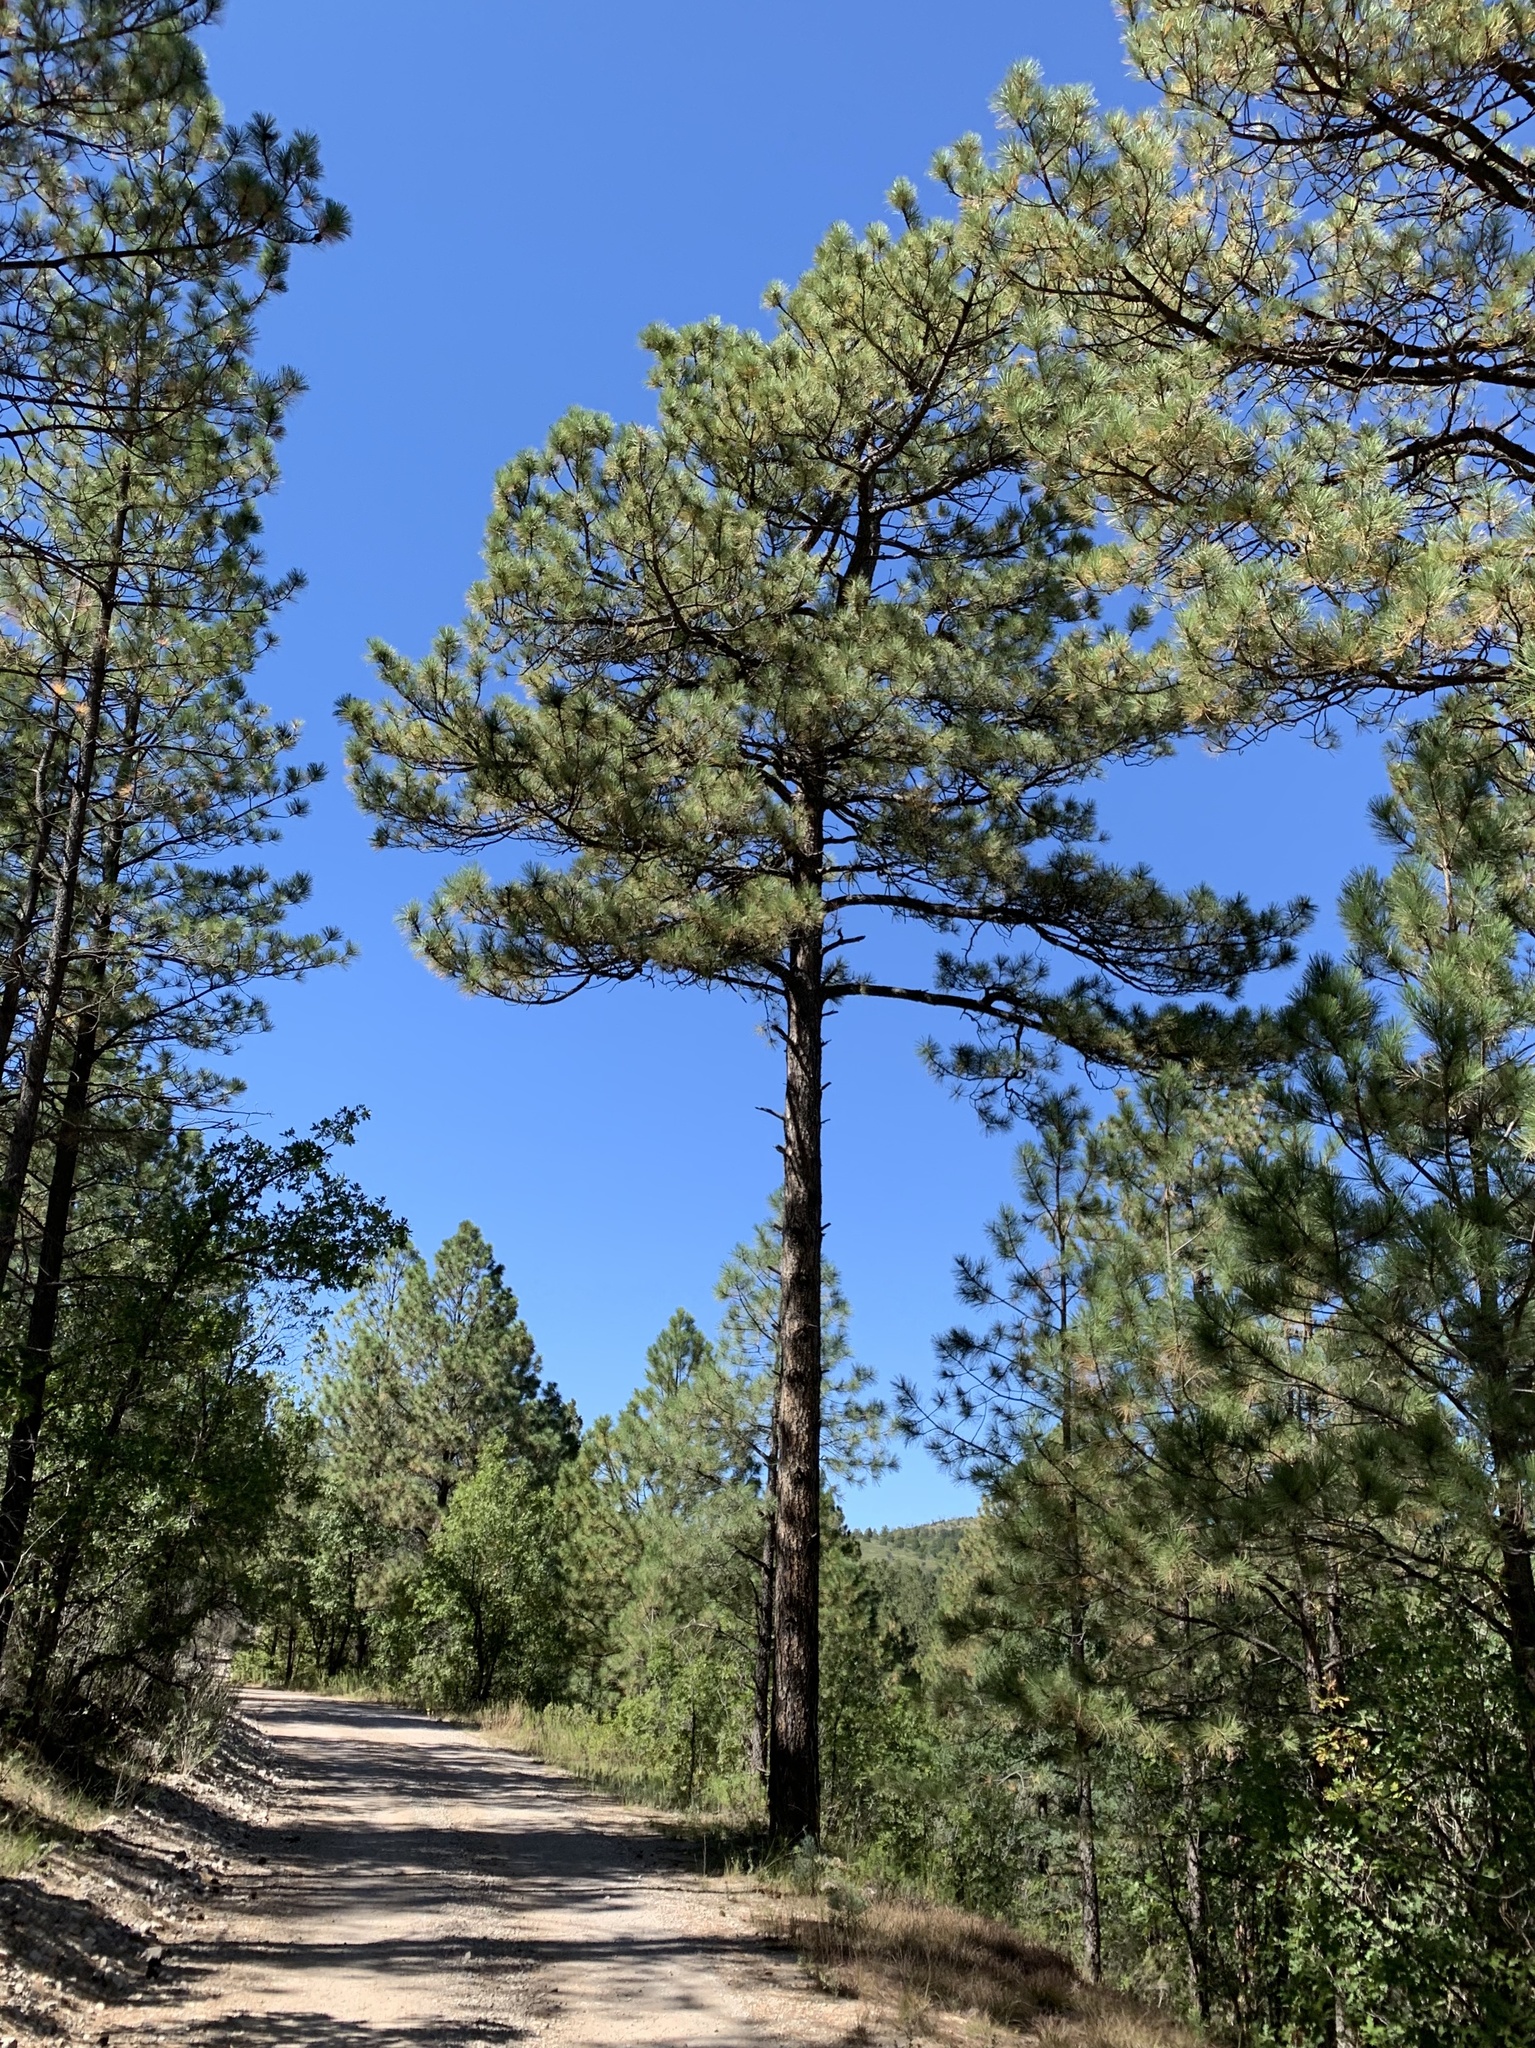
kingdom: Plantae
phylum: Tracheophyta
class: Pinopsida
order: Pinales
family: Pinaceae
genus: Pinus
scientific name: Pinus ponderosa
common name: Western yellow-pine
